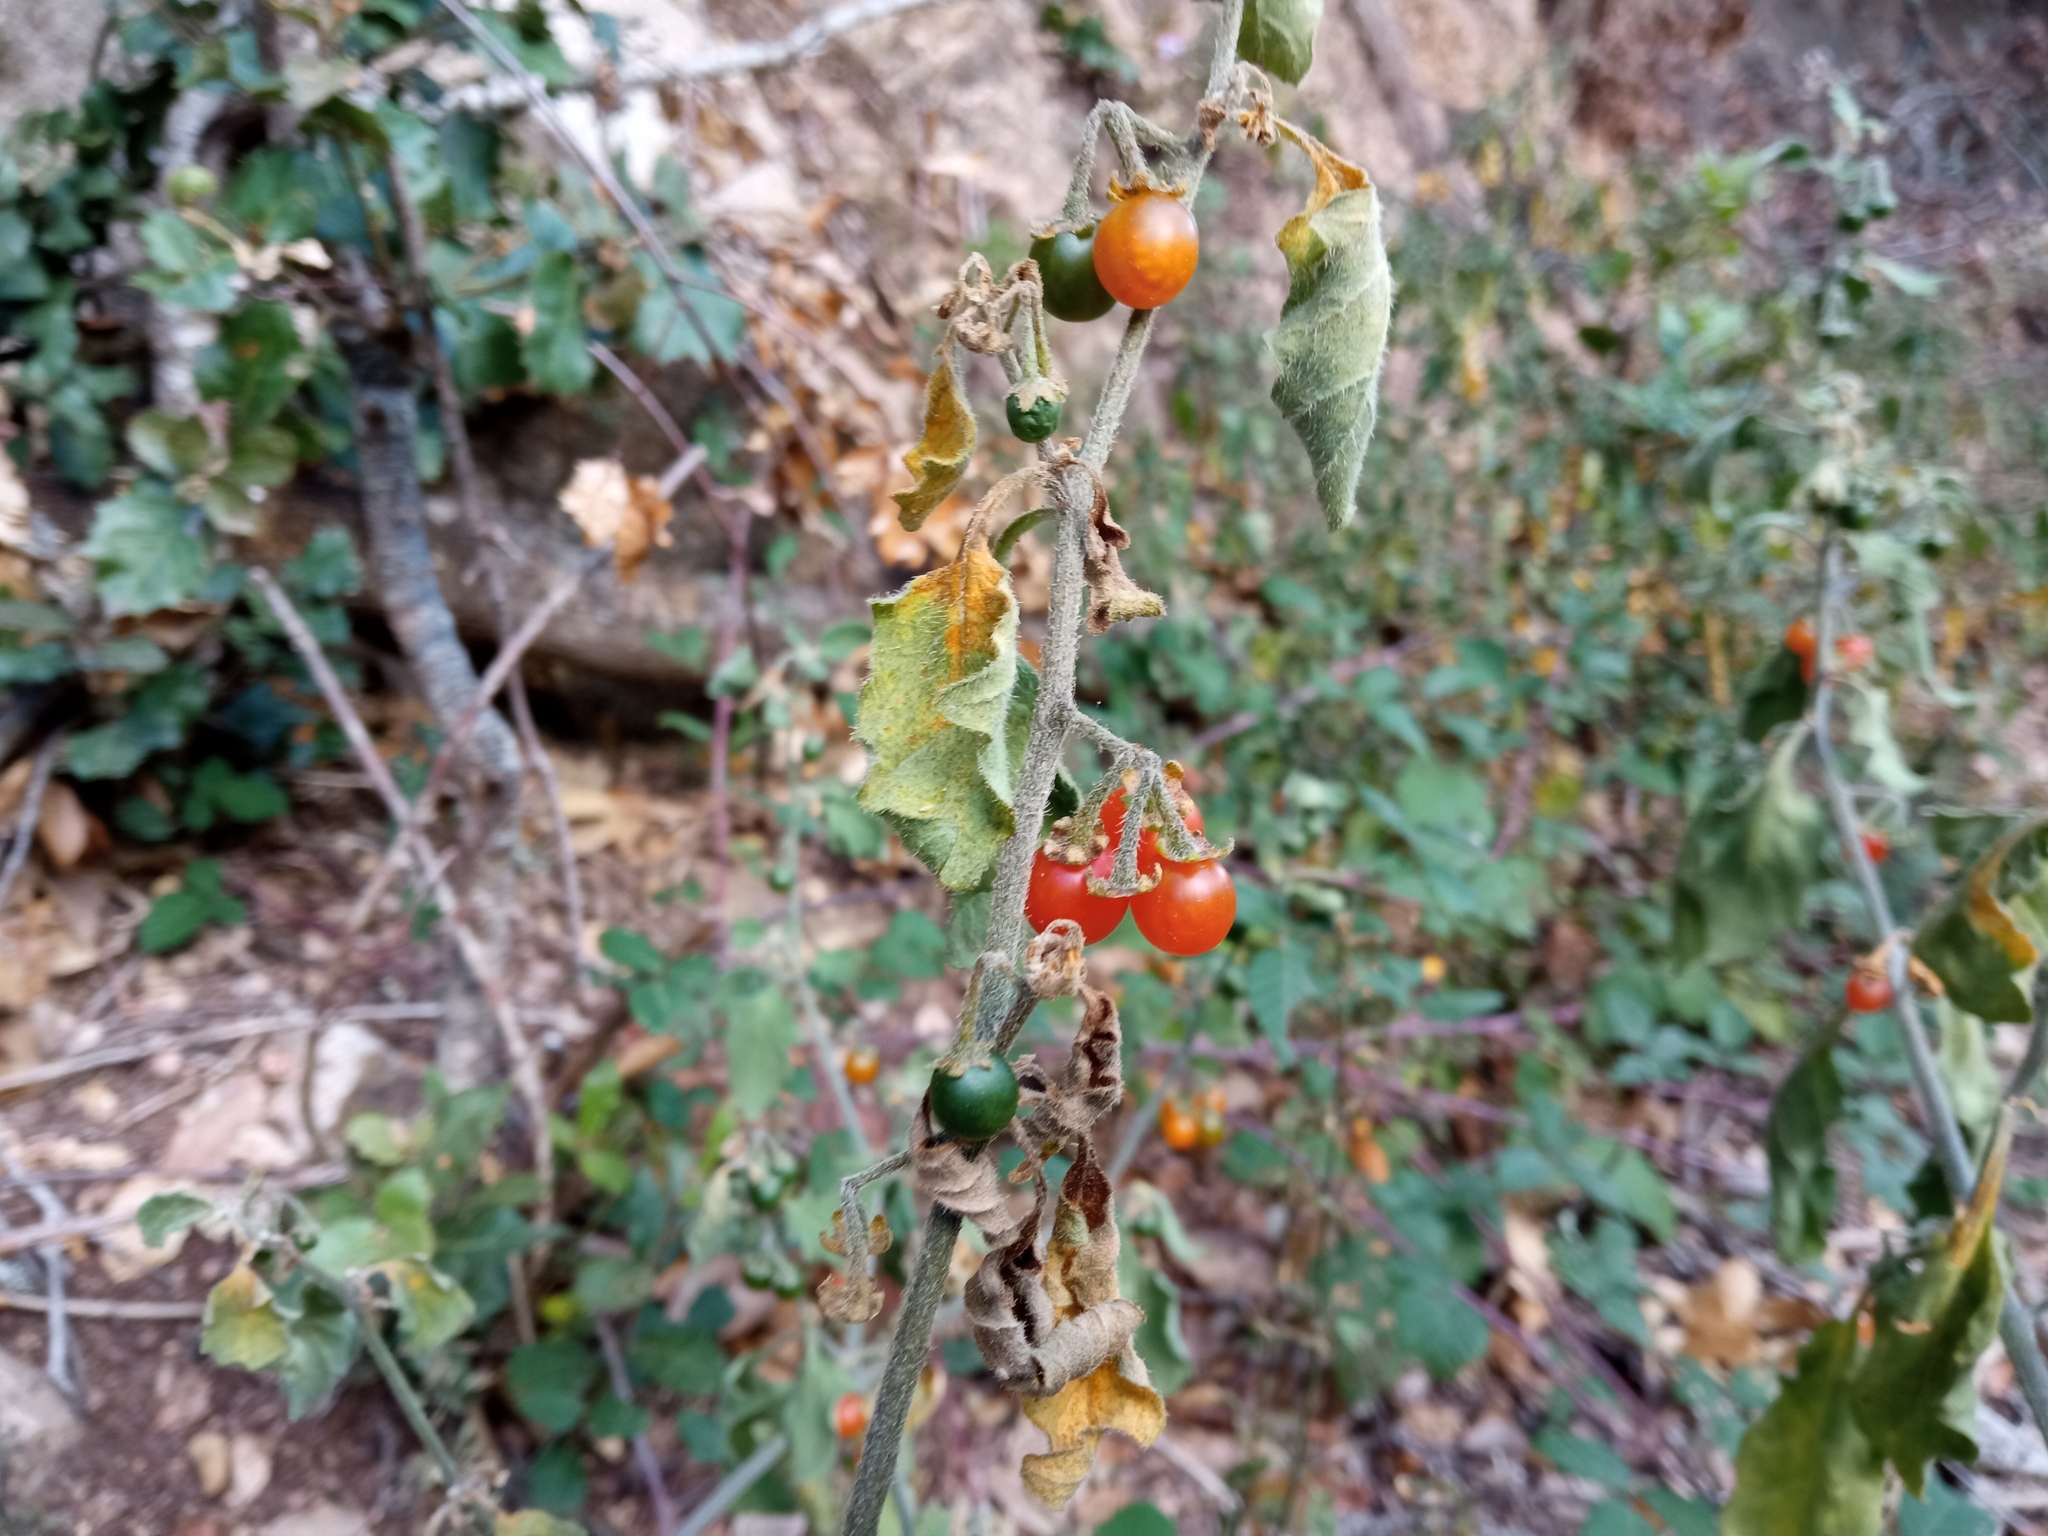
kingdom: Plantae
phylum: Tracheophyta
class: Magnoliopsida
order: Solanales
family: Solanaceae
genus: Solanum
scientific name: Solanum villosum
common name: Red nightshade
